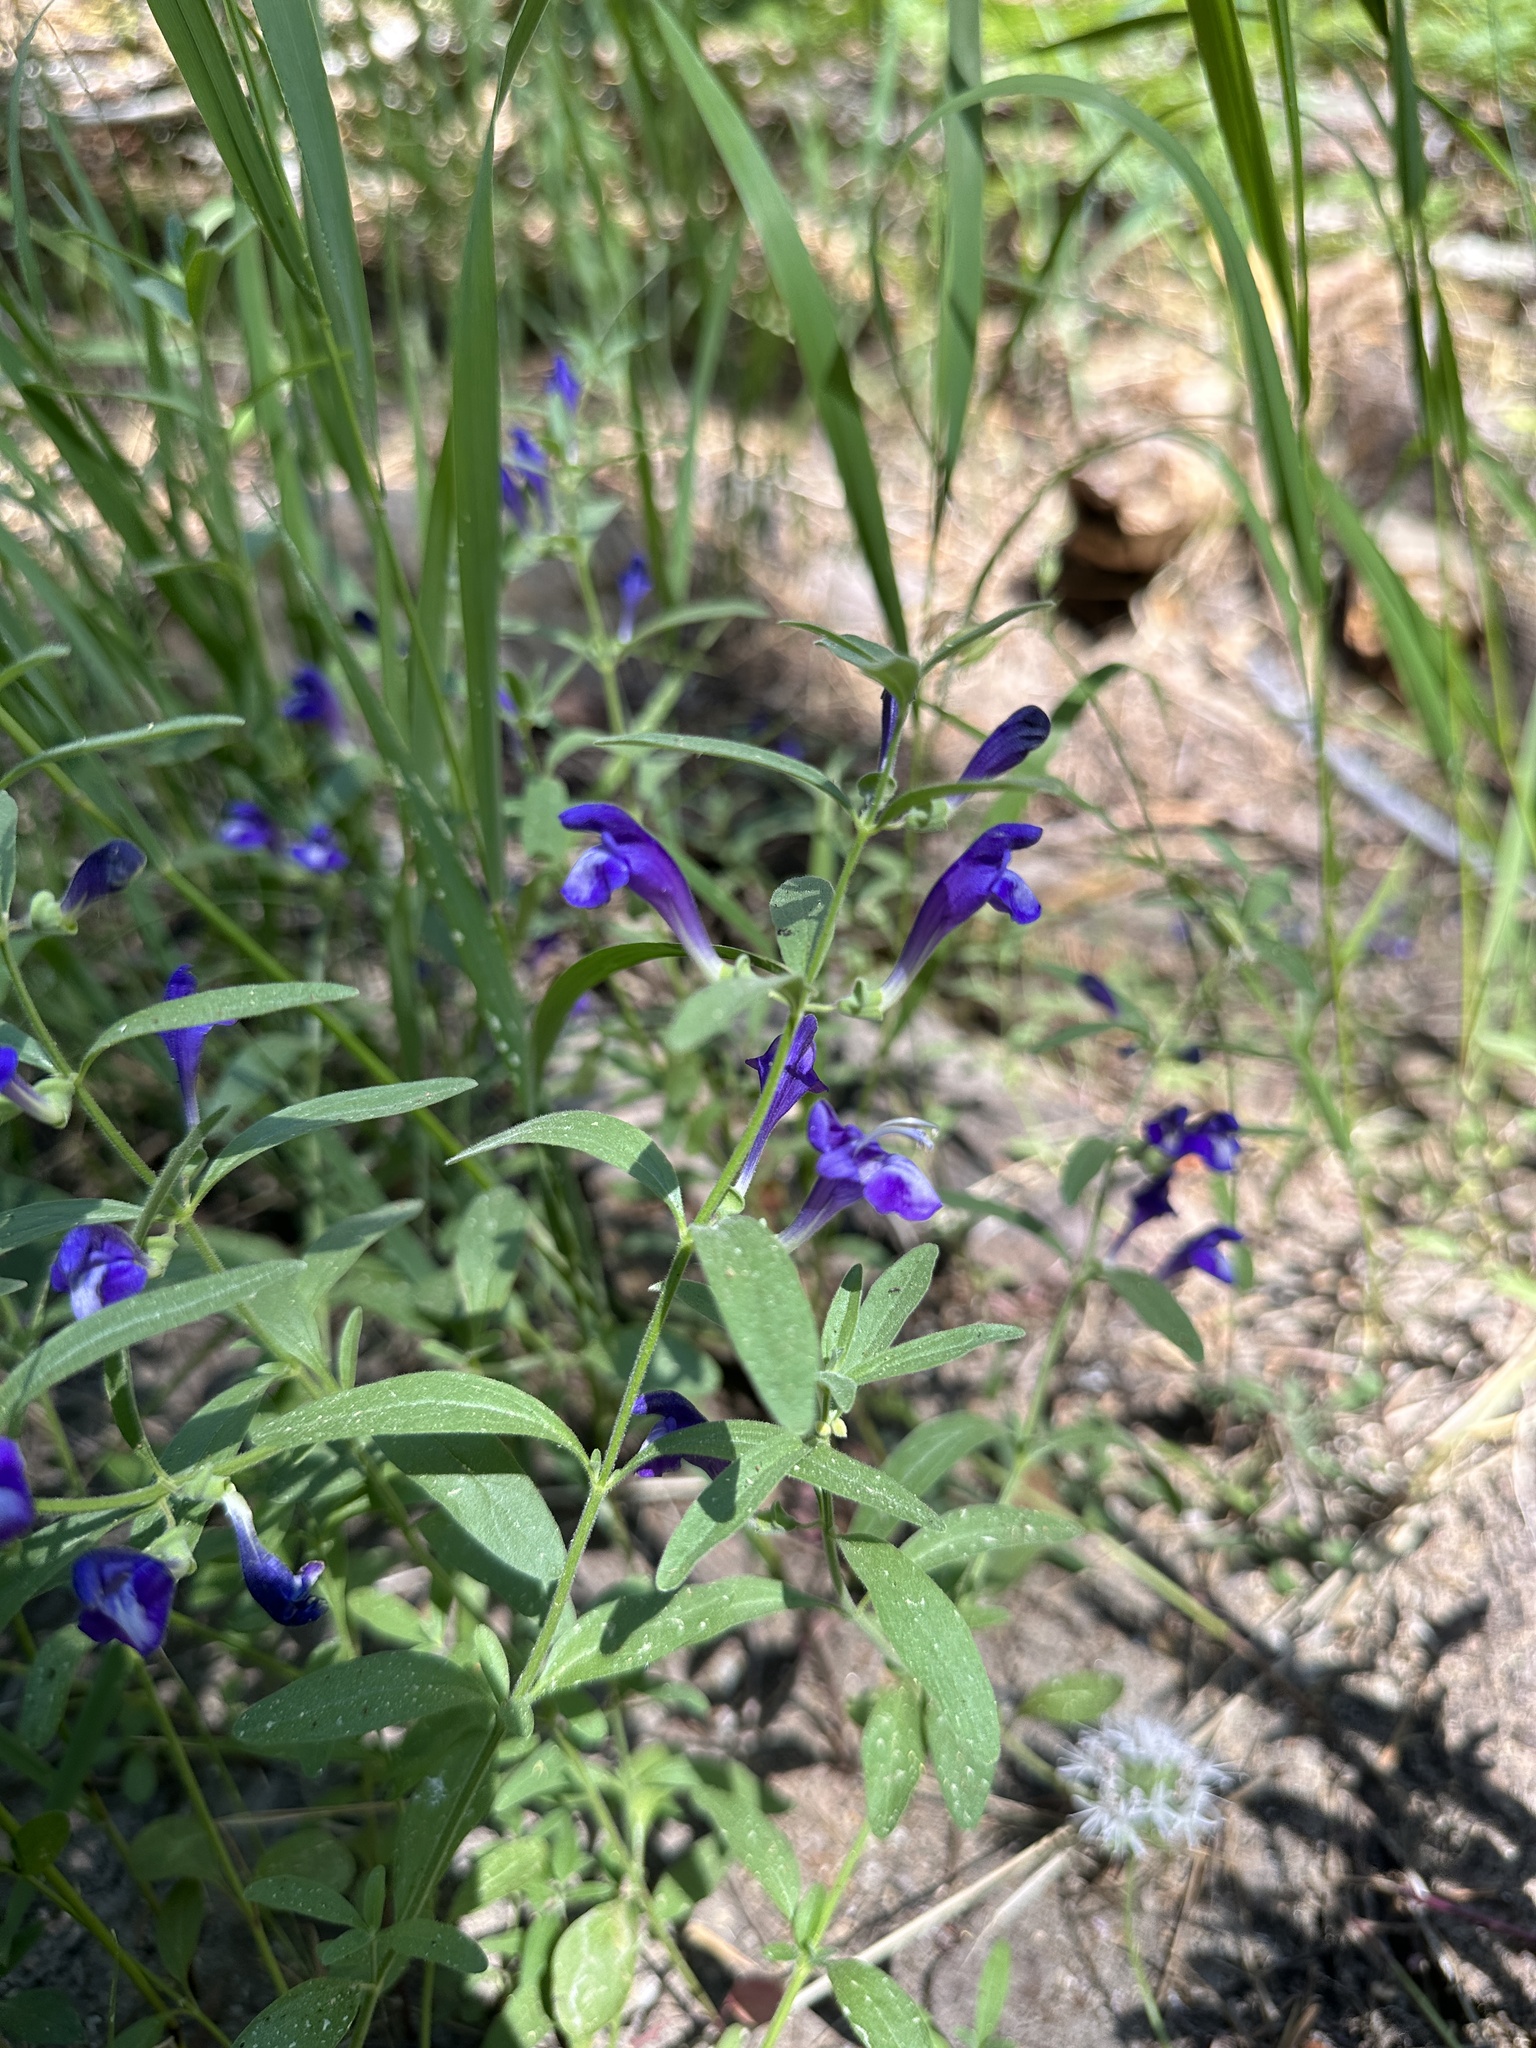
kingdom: Plantae
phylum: Tracheophyta
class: Magnoliopsida
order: Lamiales
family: Lamiaceae
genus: Scutellaria
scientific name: Scutellaria siphocampyloides
